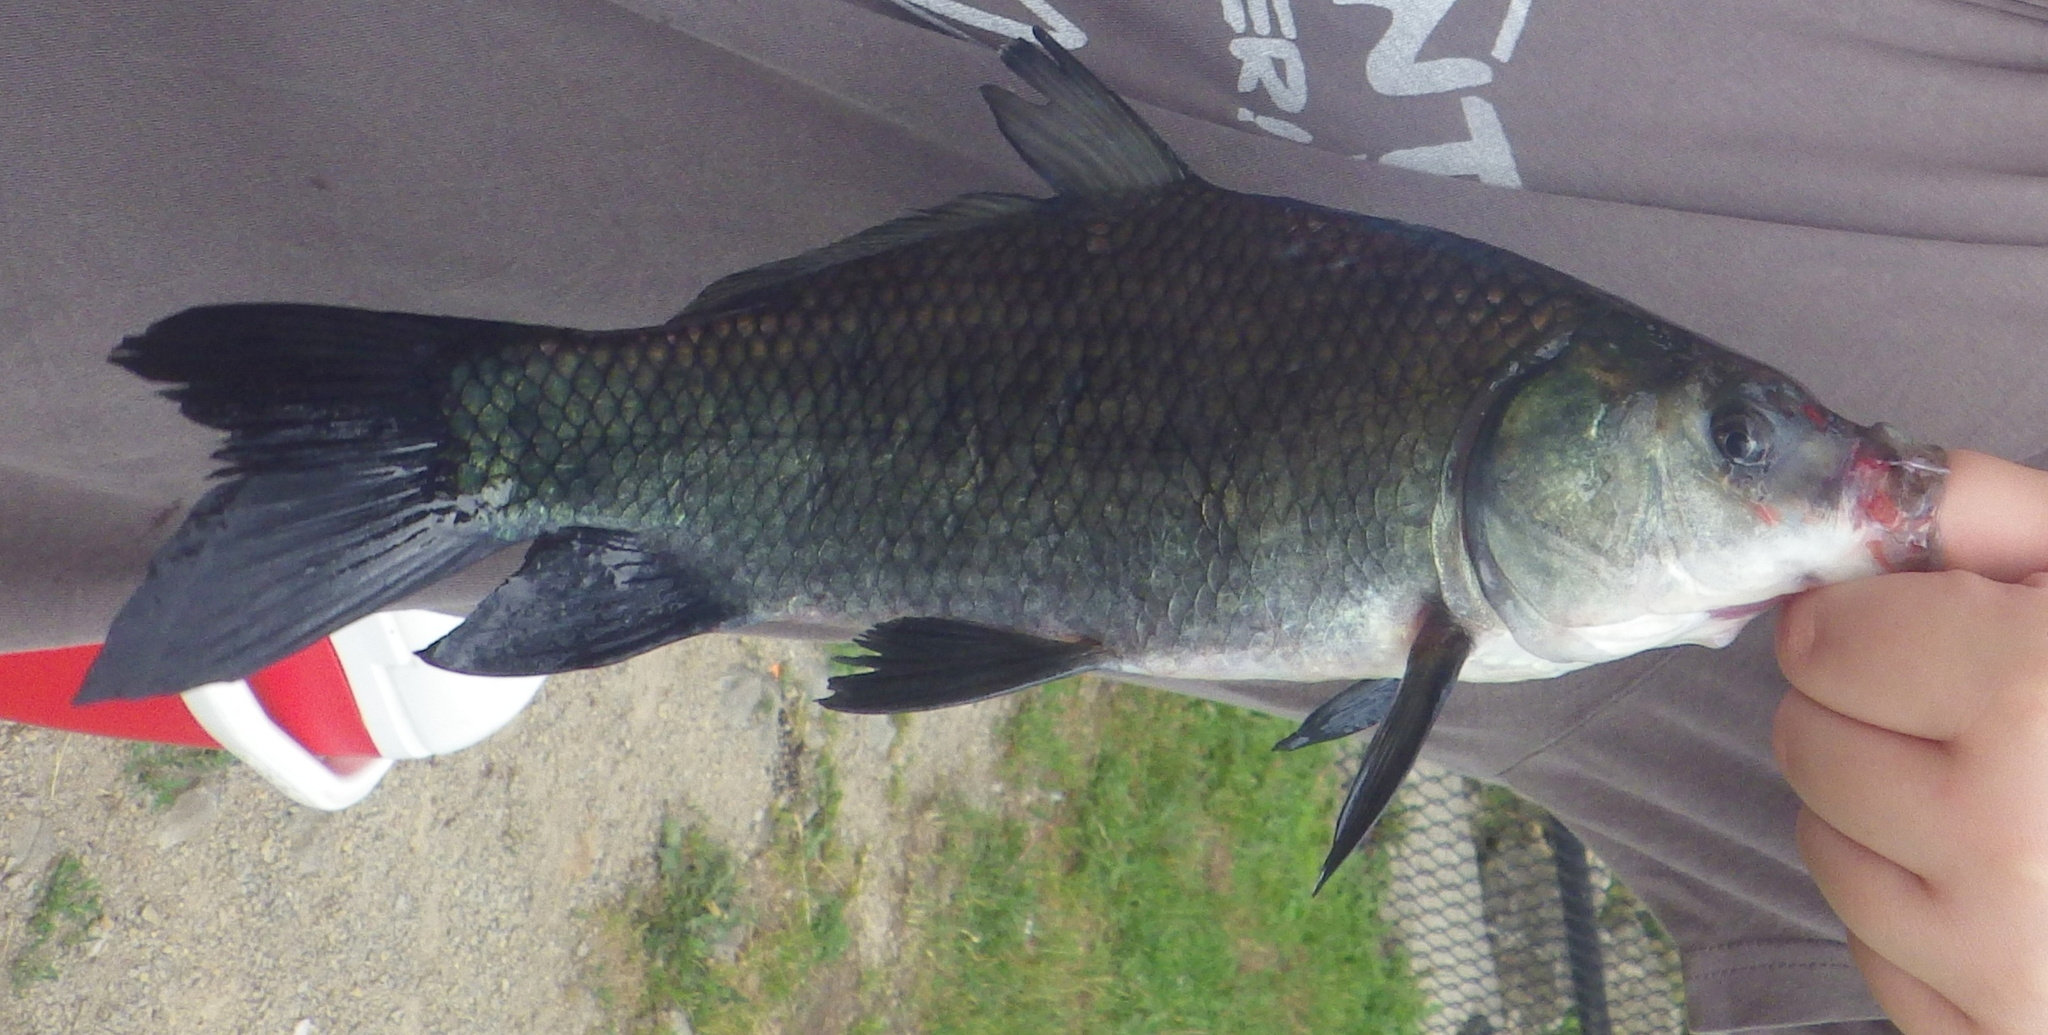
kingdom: Animalia
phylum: Chordata
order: Cypriniformes
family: Catostomidae
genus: Ictiobus
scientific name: Ictiobus cyprinellus
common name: Bigmouth buffalo
